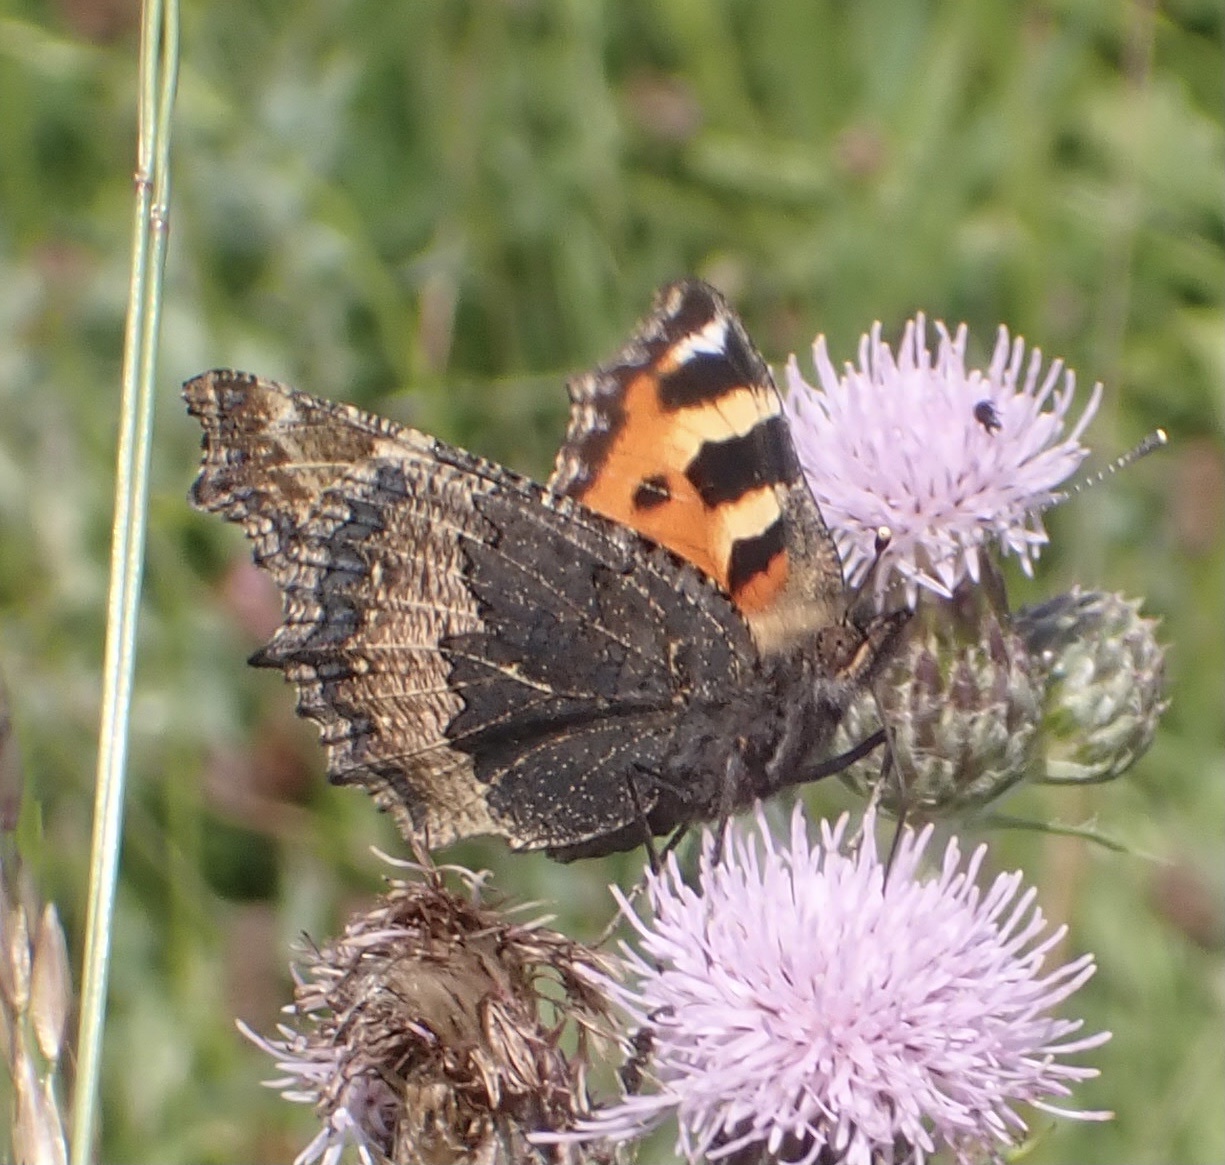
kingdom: Animalia
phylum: Arthropoda
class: Insecta
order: Lepidoptera
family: Nymphalidae
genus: Aglais
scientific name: Aglais urticae
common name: Small tortoiseshell
